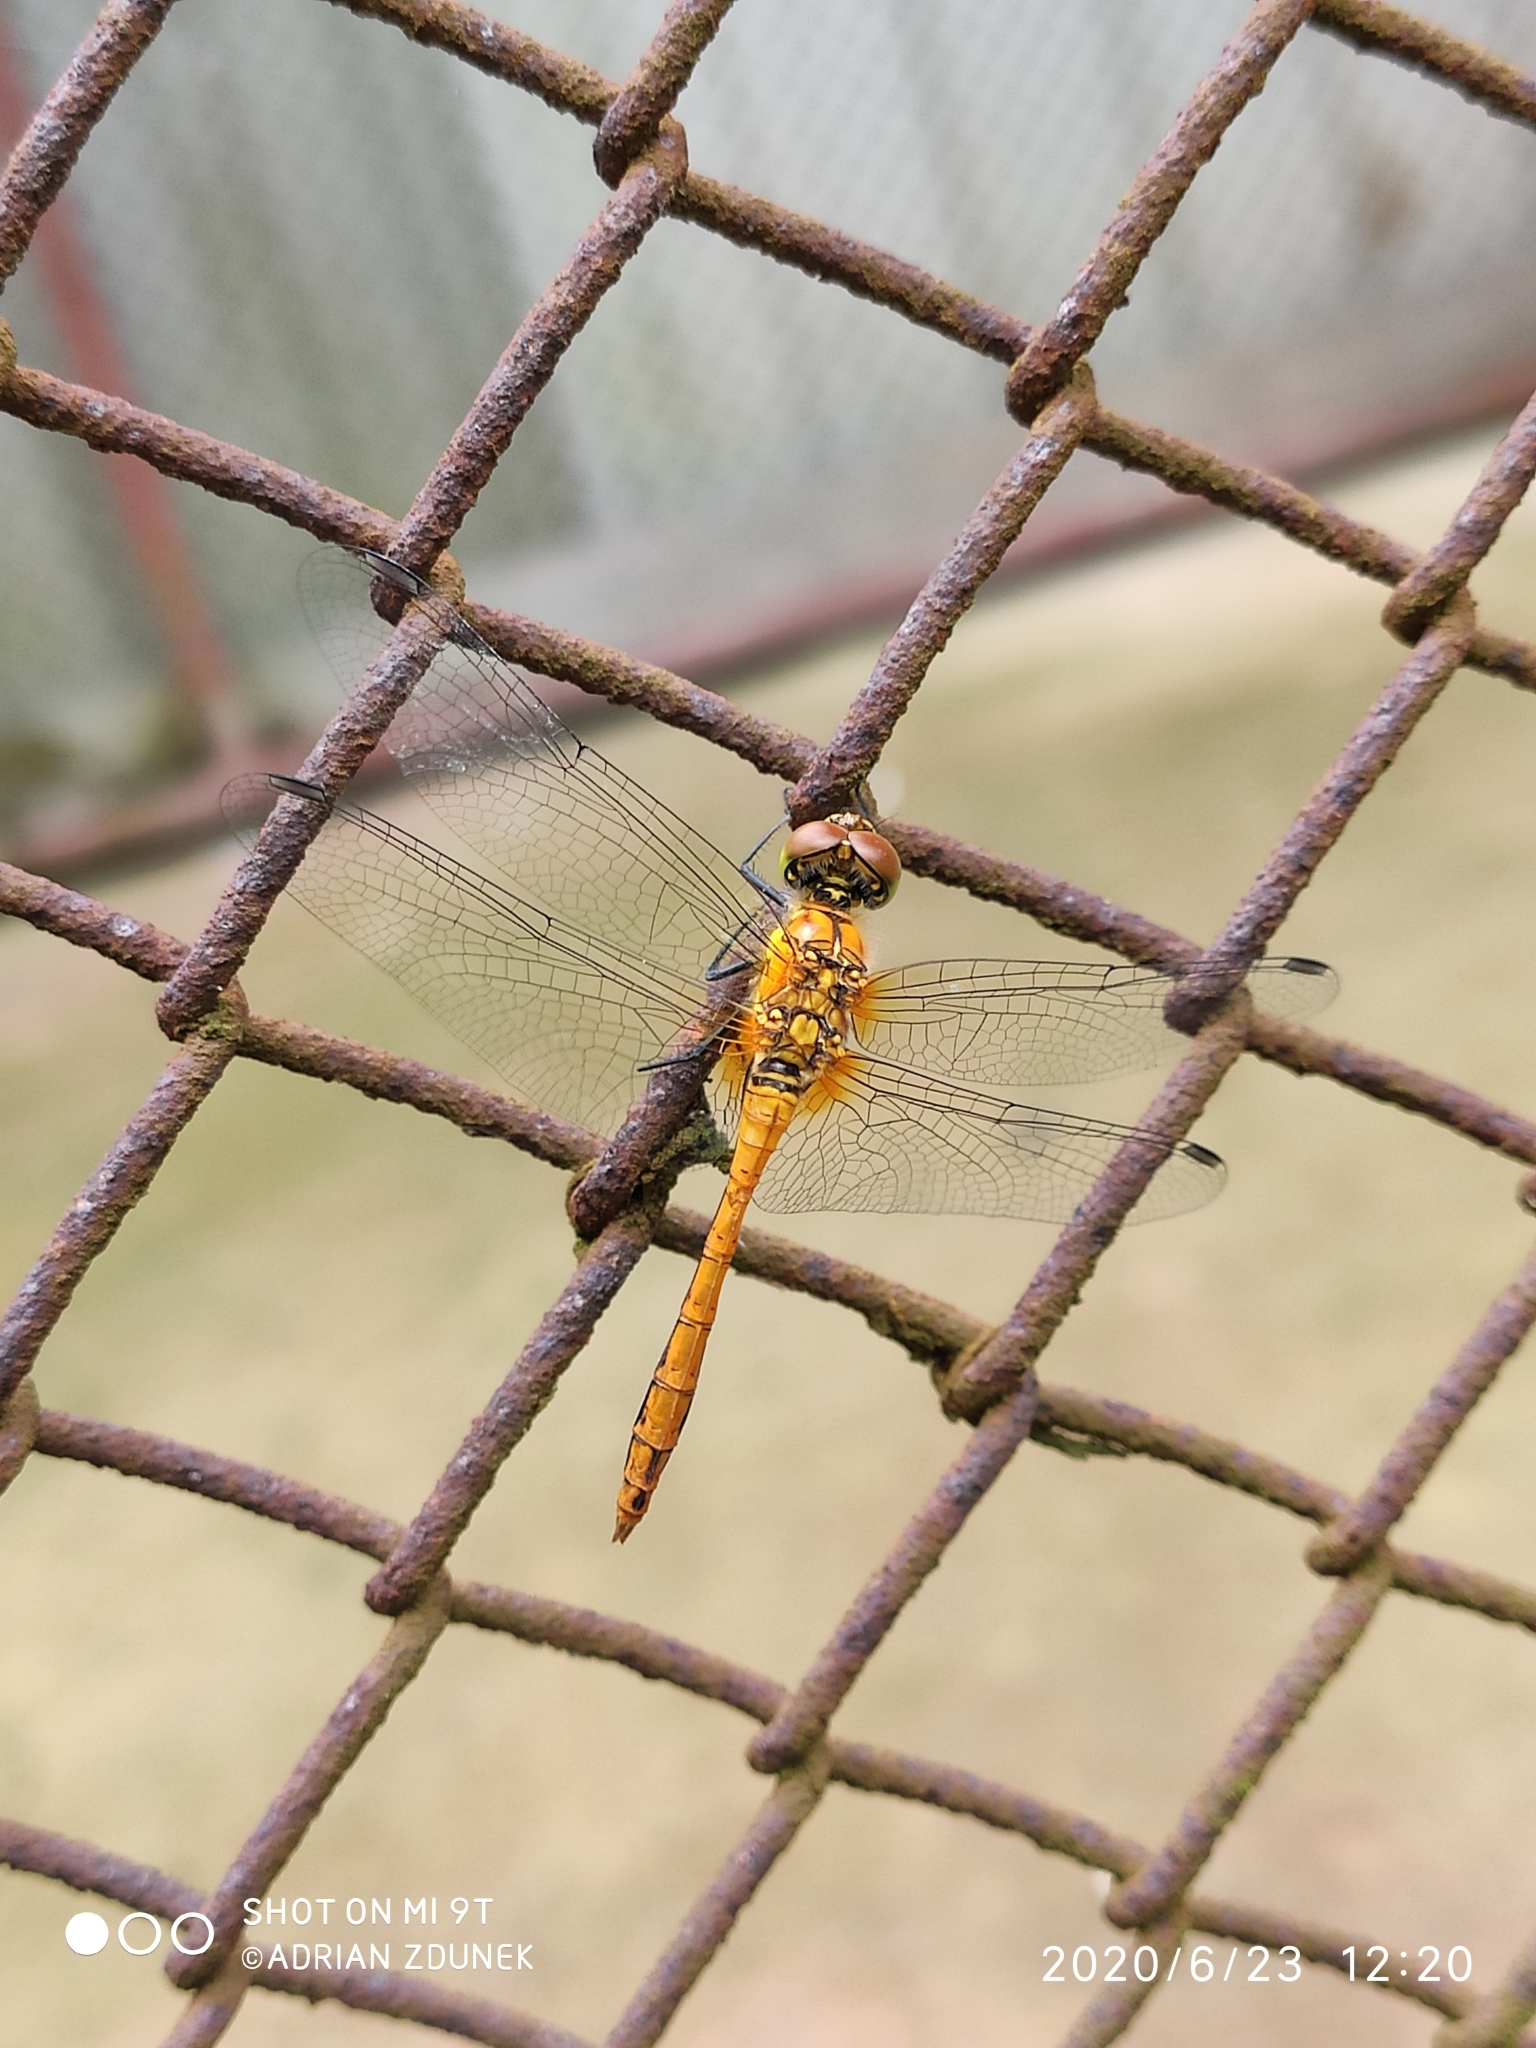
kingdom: Animalia
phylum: Arthropoda
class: Insecta
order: Odonata
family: Libellulidae
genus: Sympetrum
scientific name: Sympetrum sanguineum
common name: Ruddy darter
